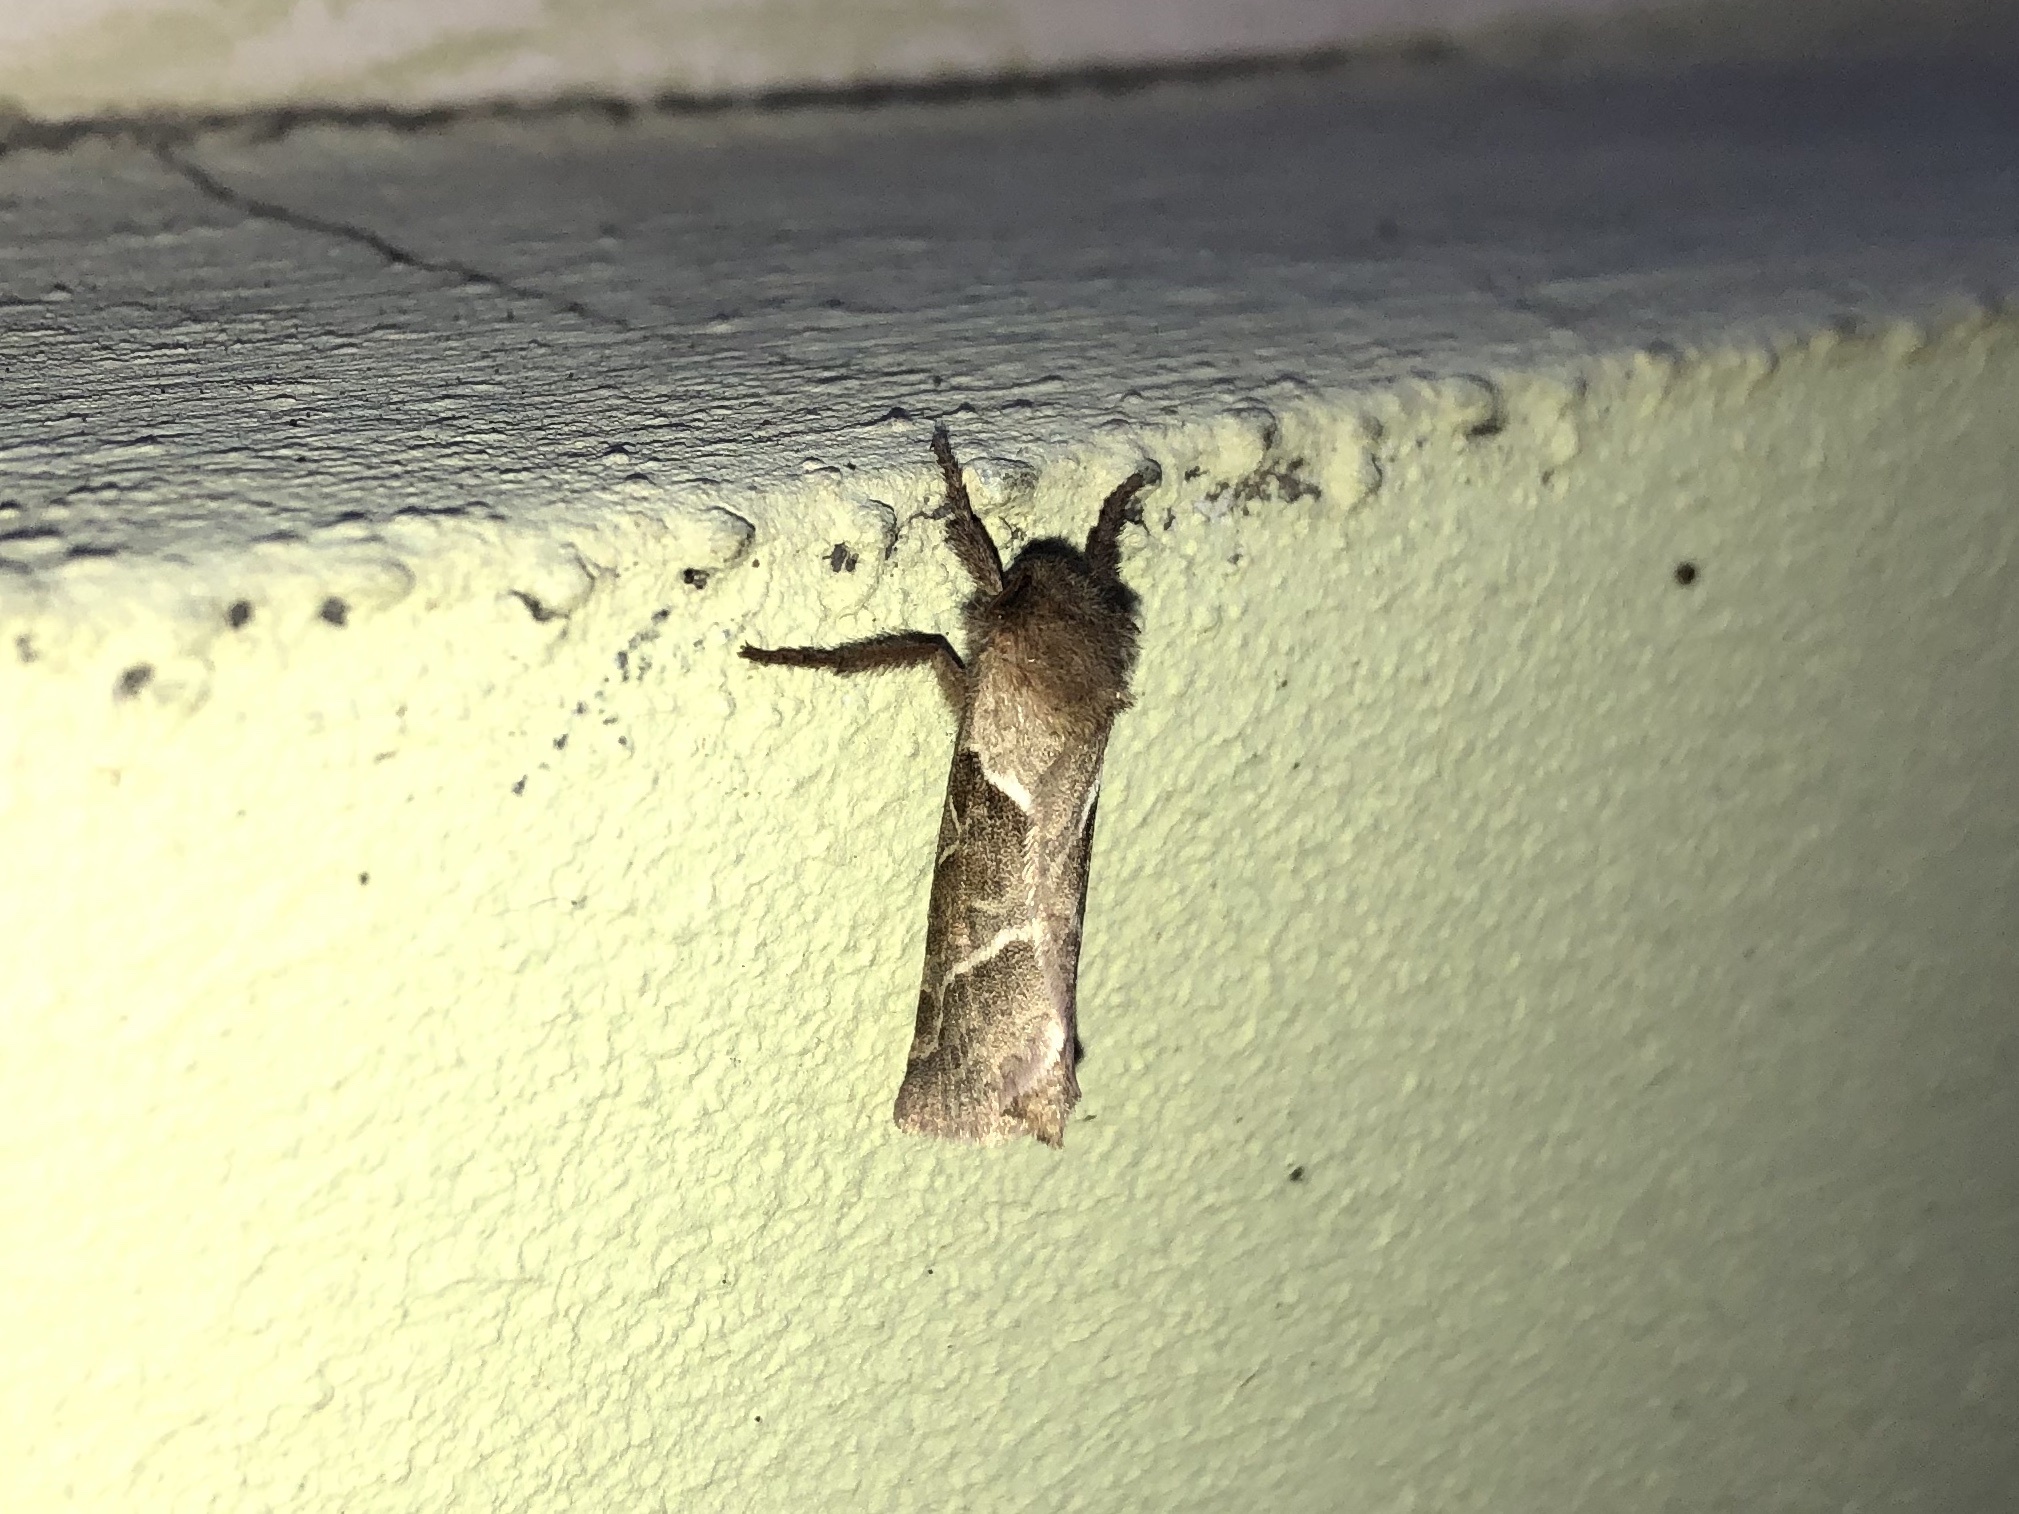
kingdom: Animalia
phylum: Arthropoda
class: Insecta
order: Lepidoptera
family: Hepialidae
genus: Triodia
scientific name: Triodia sylvina
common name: Orange swift
